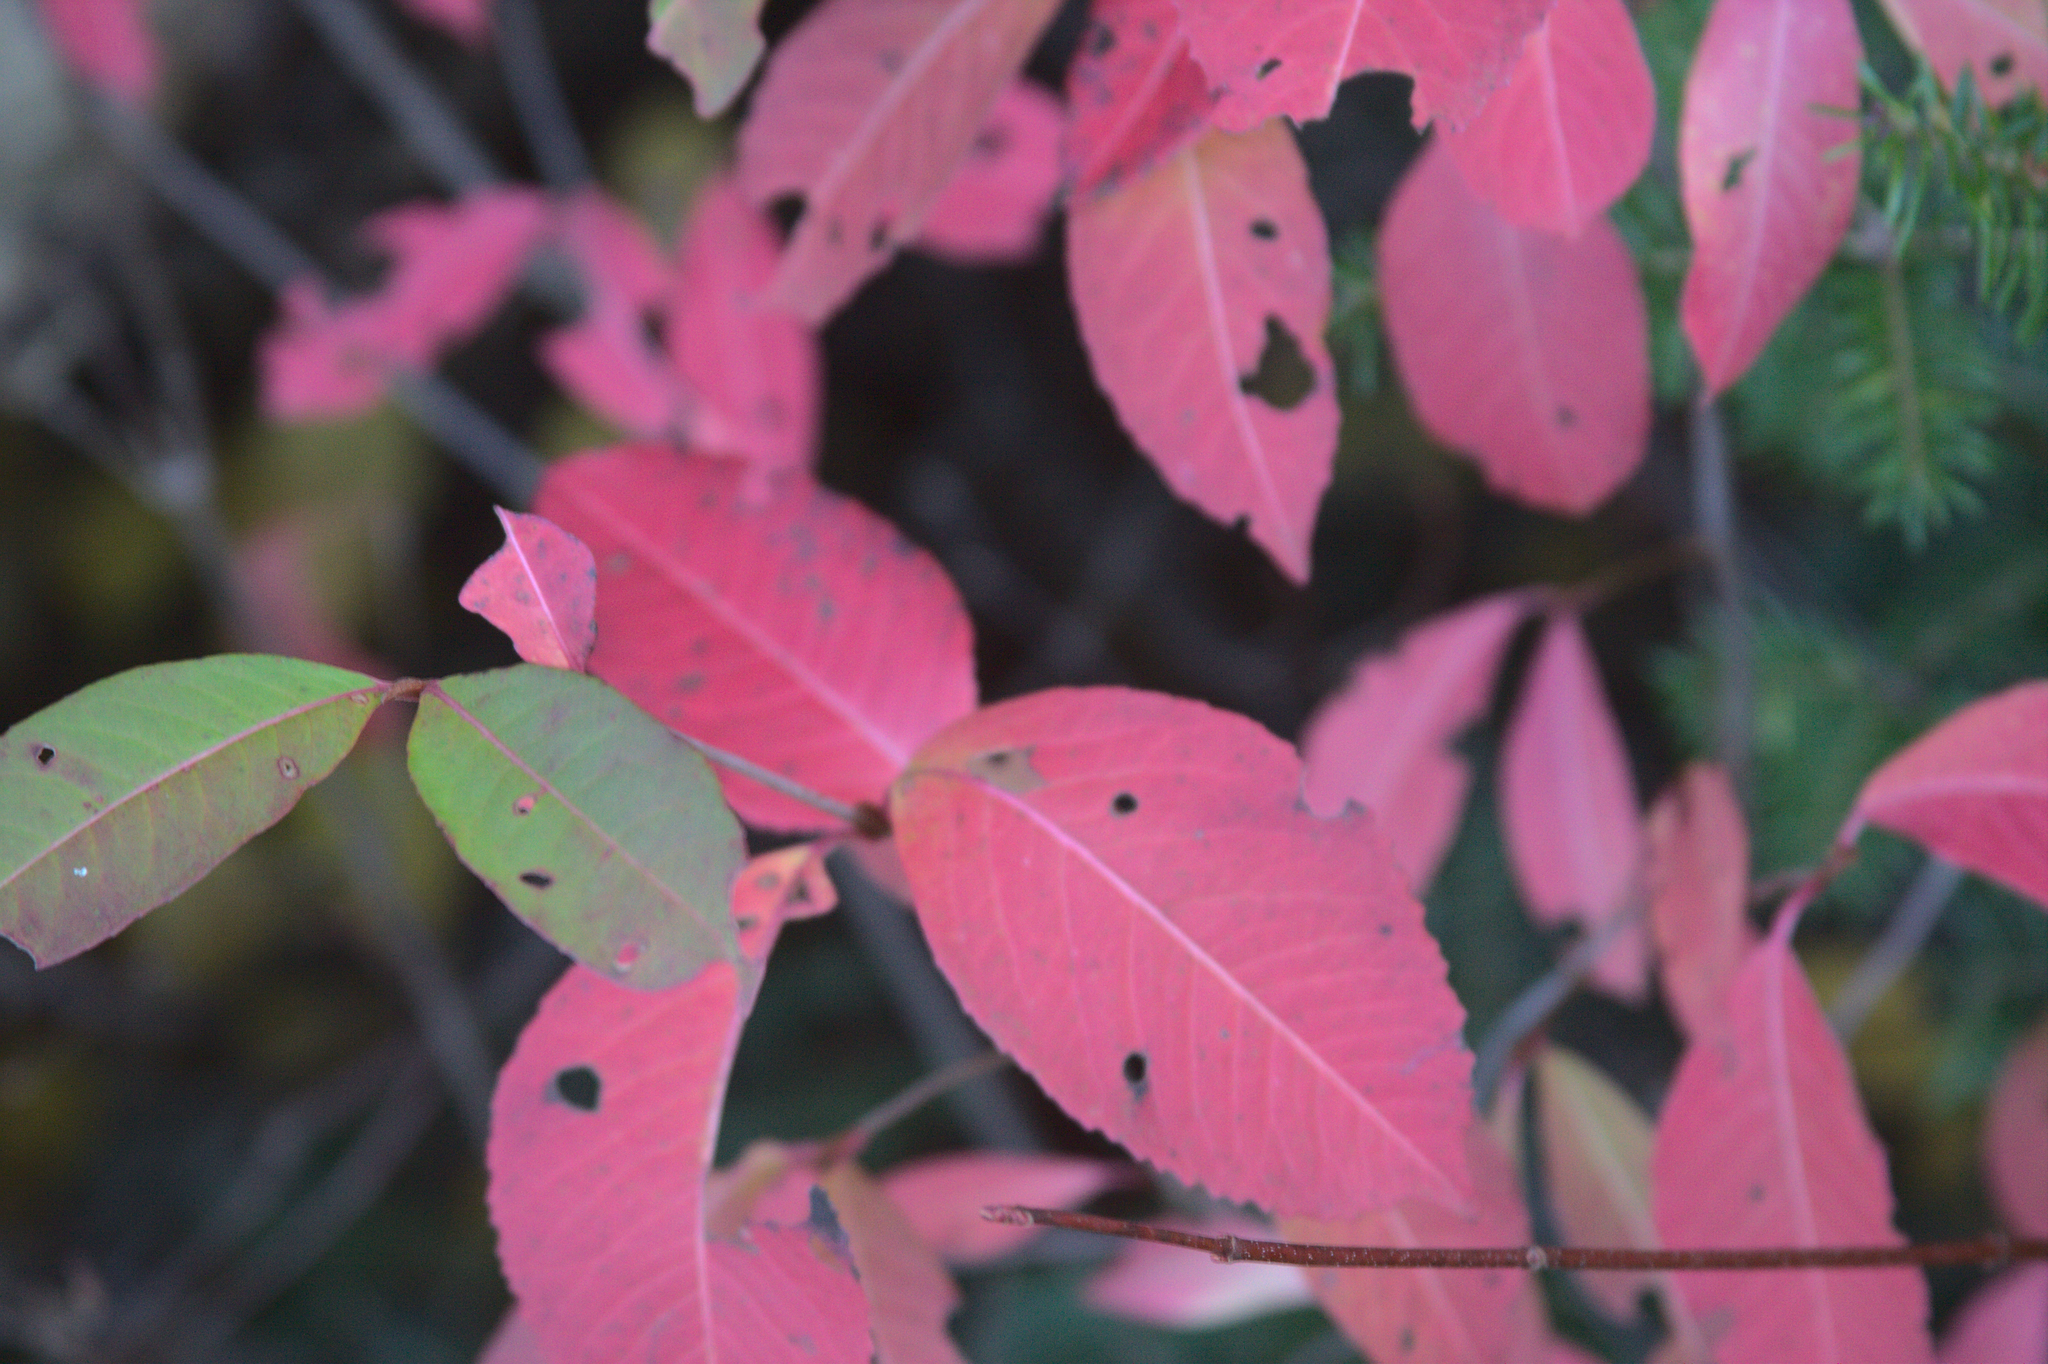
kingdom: Plantae
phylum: Tracheophyta
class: Magnoliopsida
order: Dipsacales
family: Viburnaceae
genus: Viburnum
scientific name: Viburnum cassinoides
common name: Swamp haw
